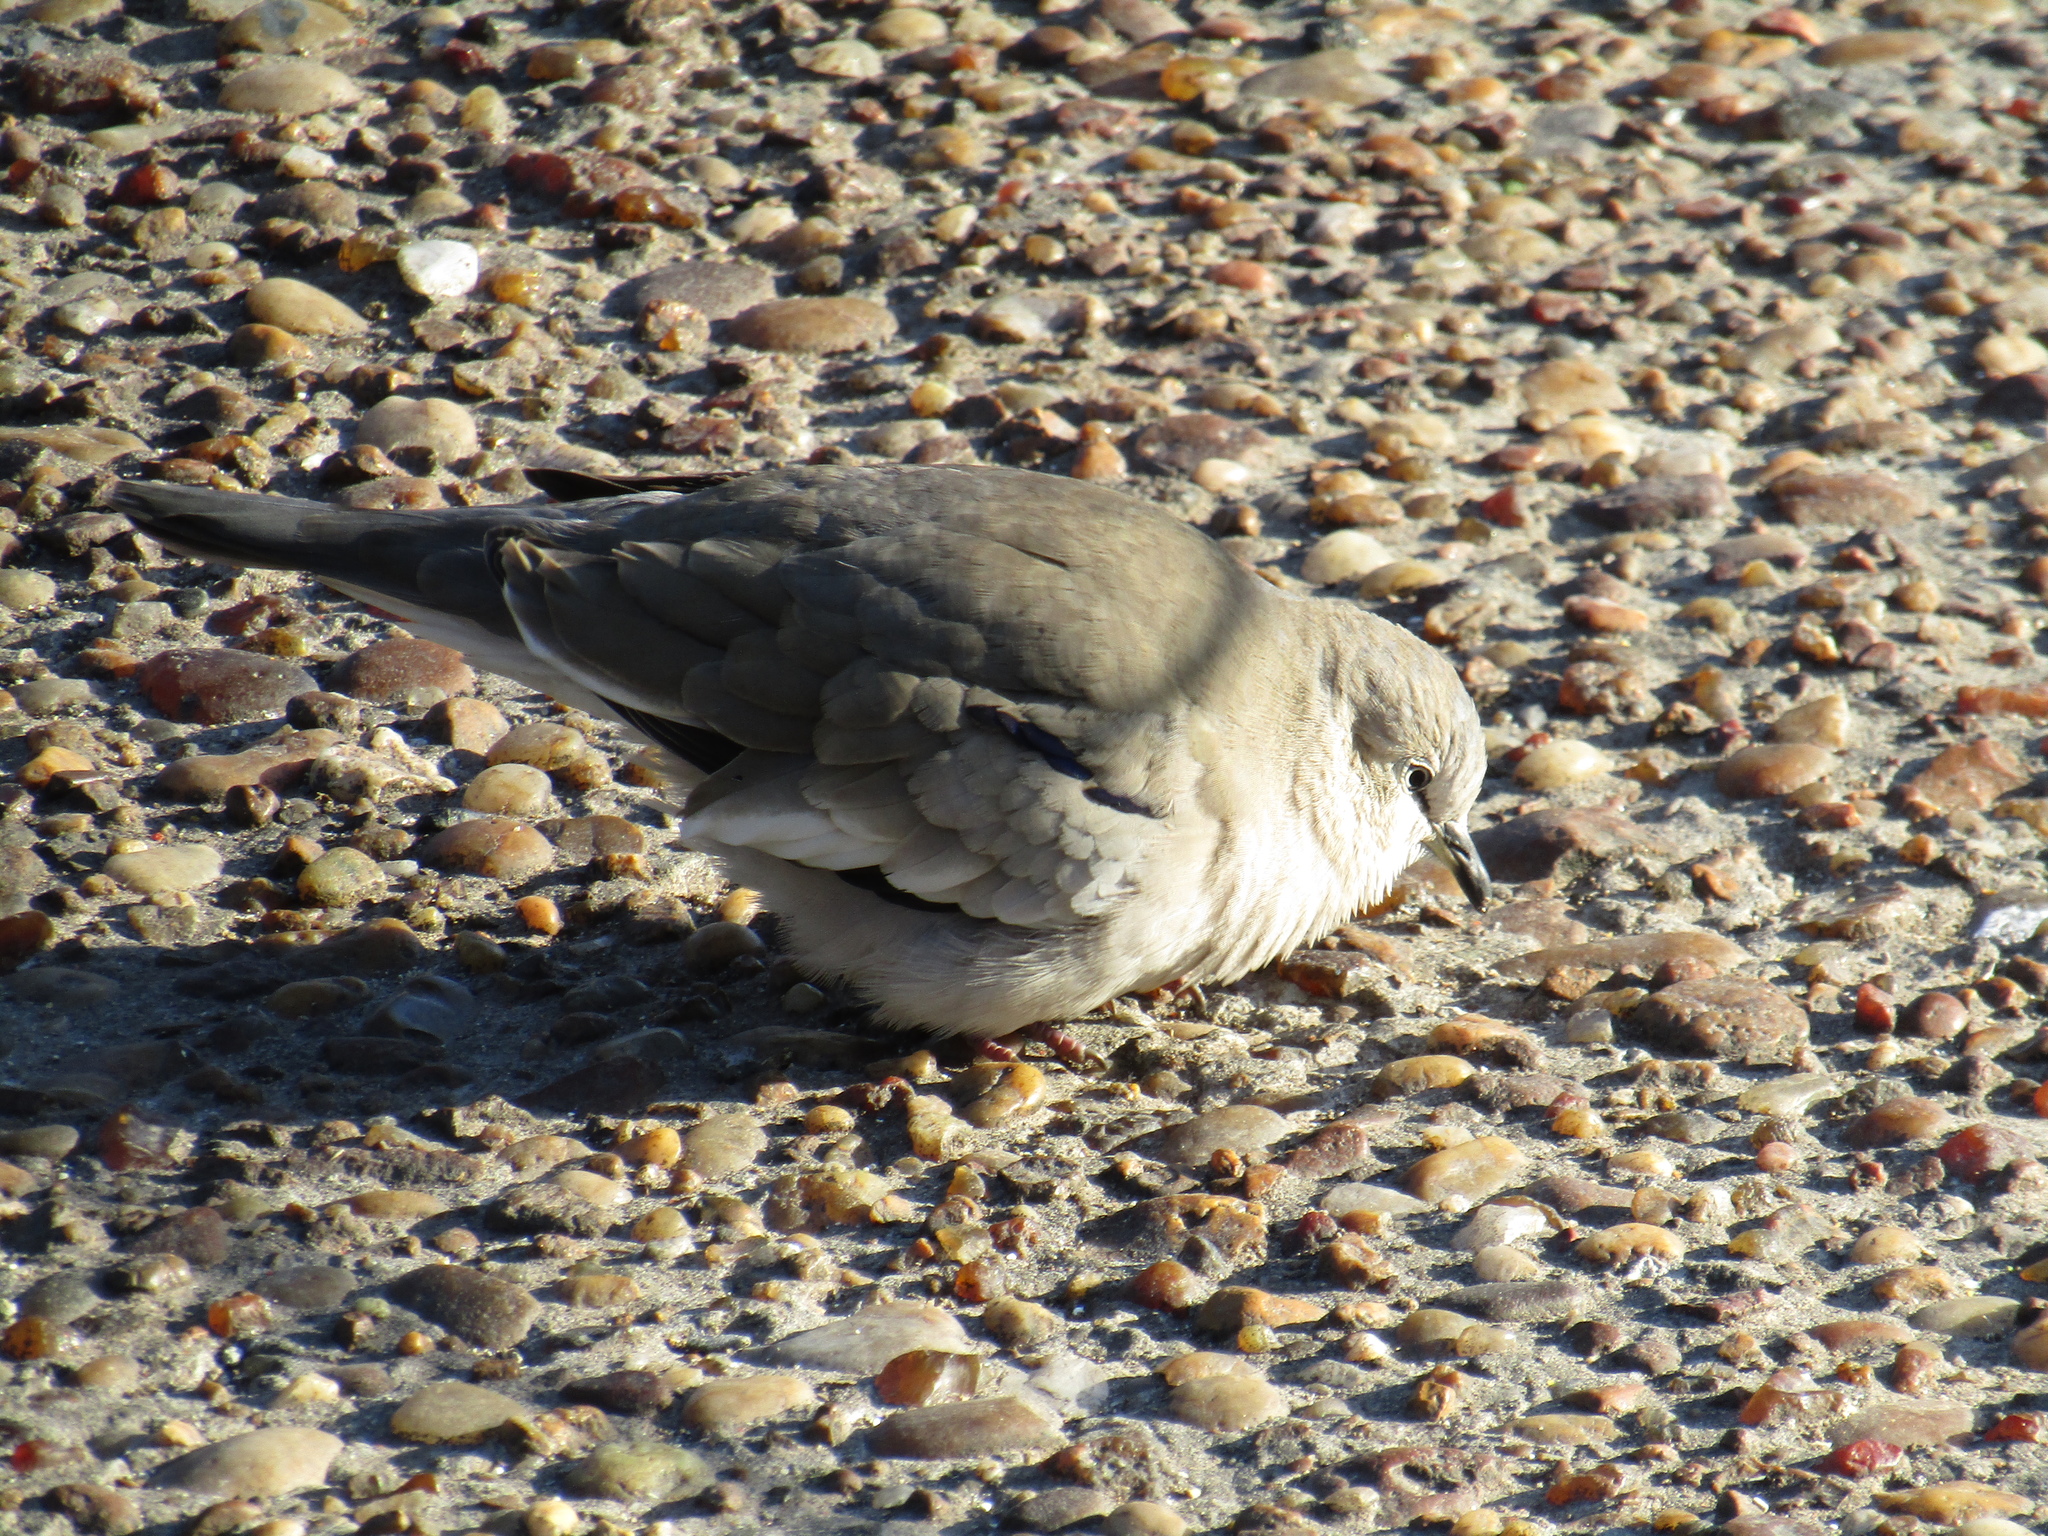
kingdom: Animalia
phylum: Chordata
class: Aves
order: Columbiformes
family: Columbidae
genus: Columbina
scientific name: Columbina picui
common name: Picui ground dove
